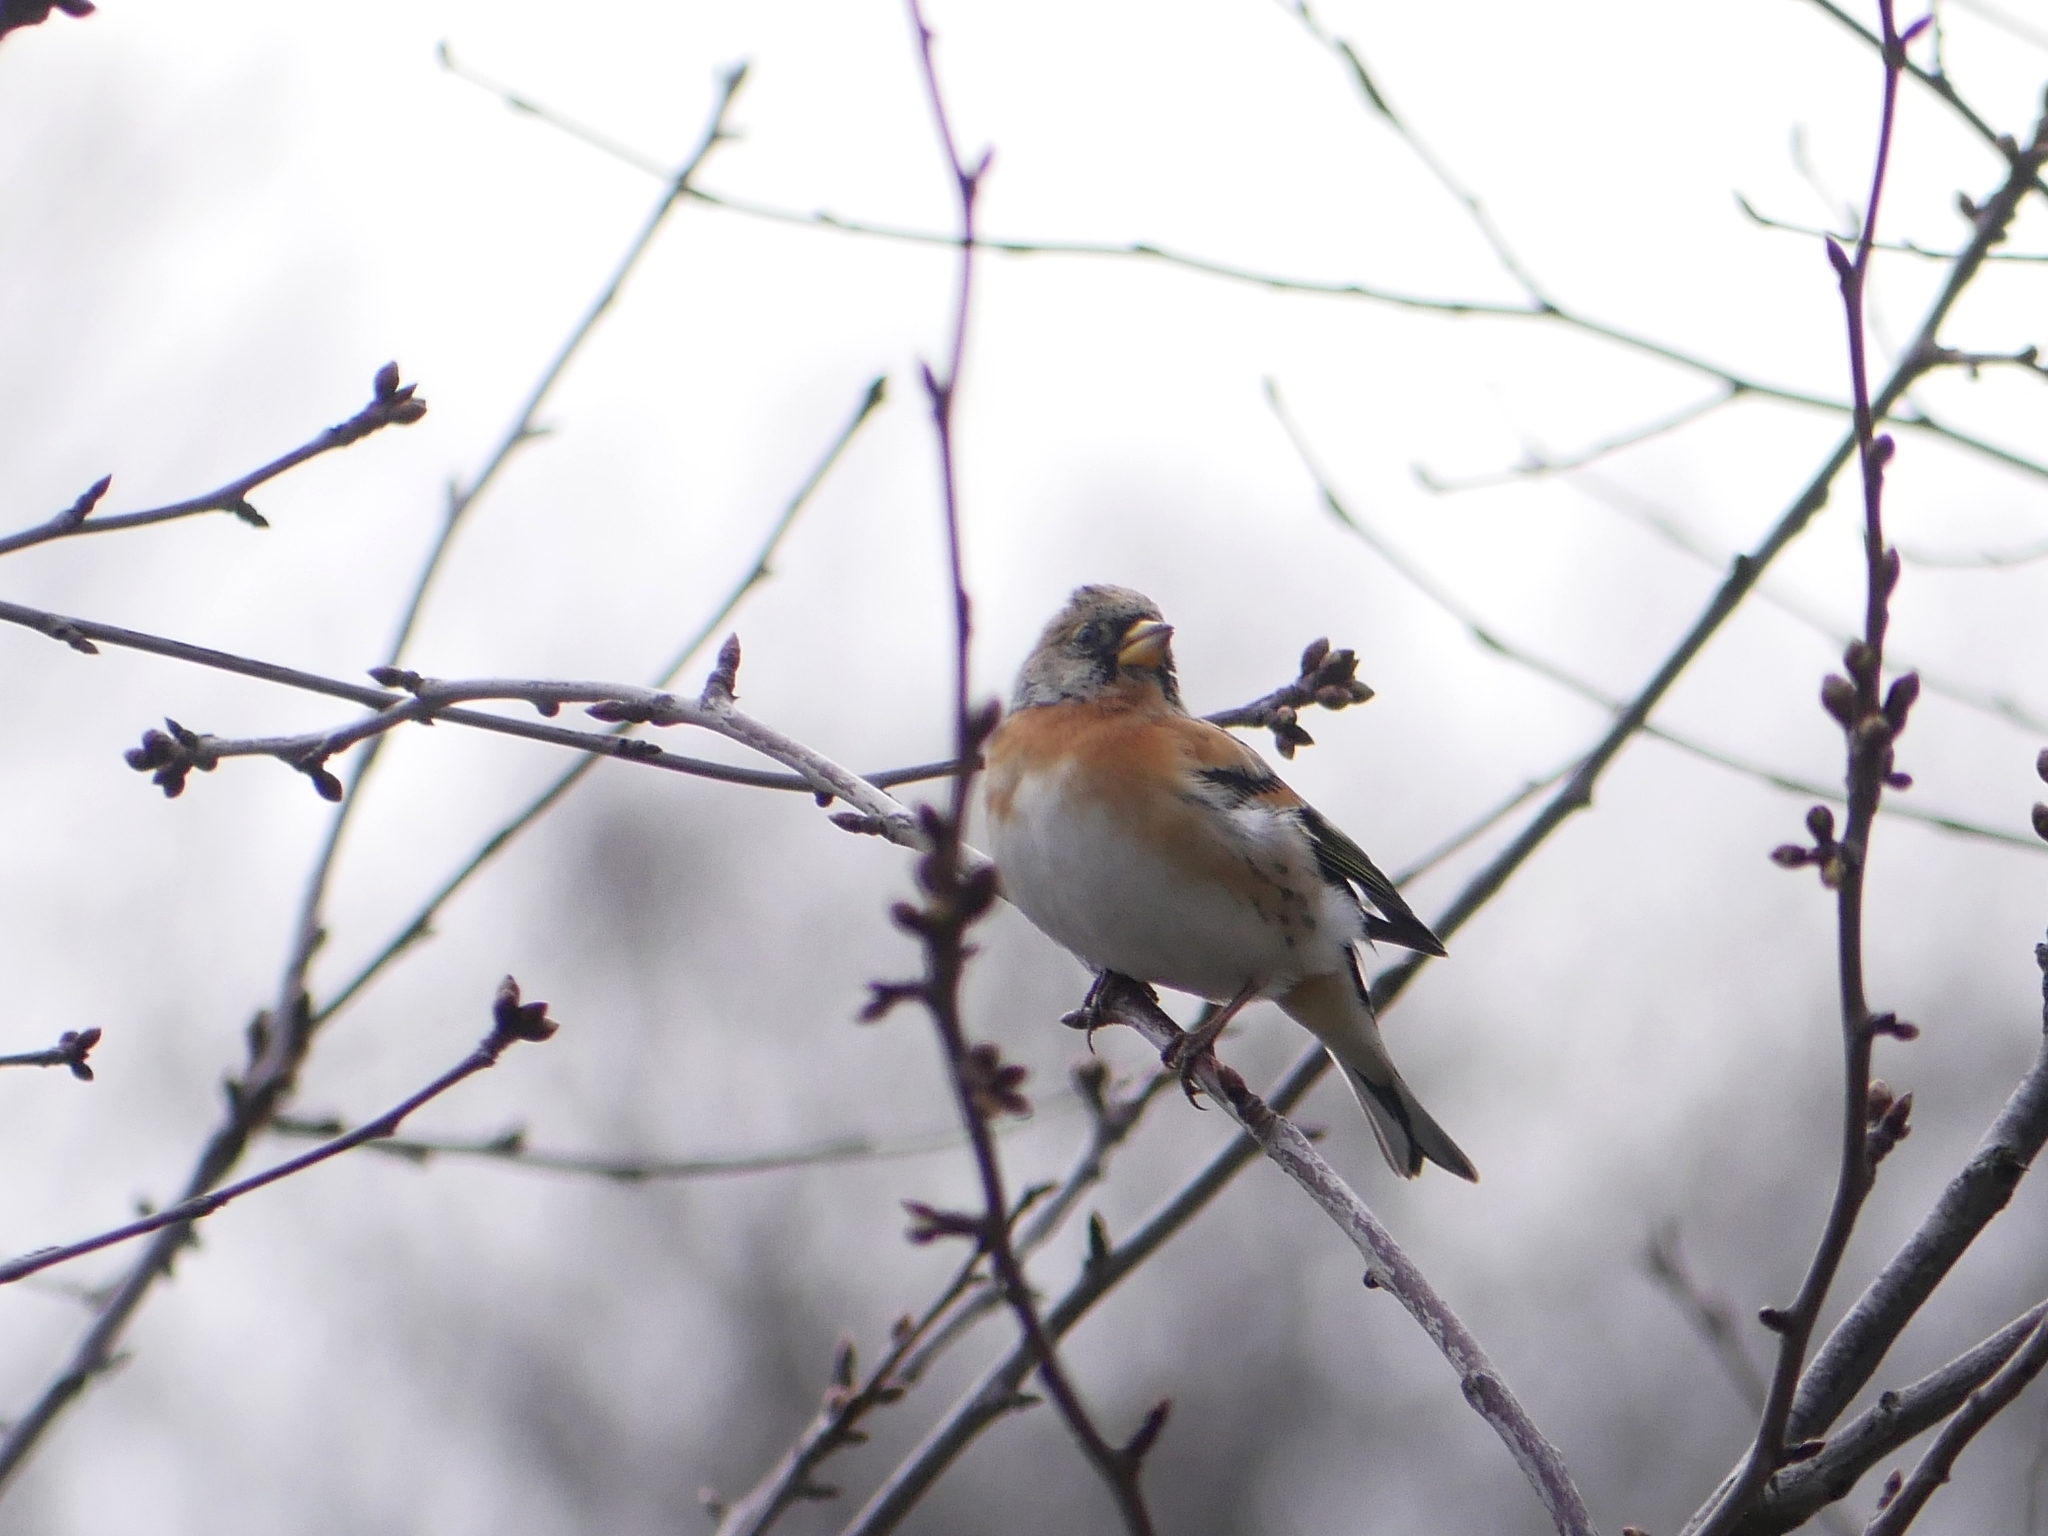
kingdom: Animalia
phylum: Chordata
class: Aves
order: Passeriformes
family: Fringillidae
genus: Fringilla
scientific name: Fringilla montifringilla
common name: Brambling
